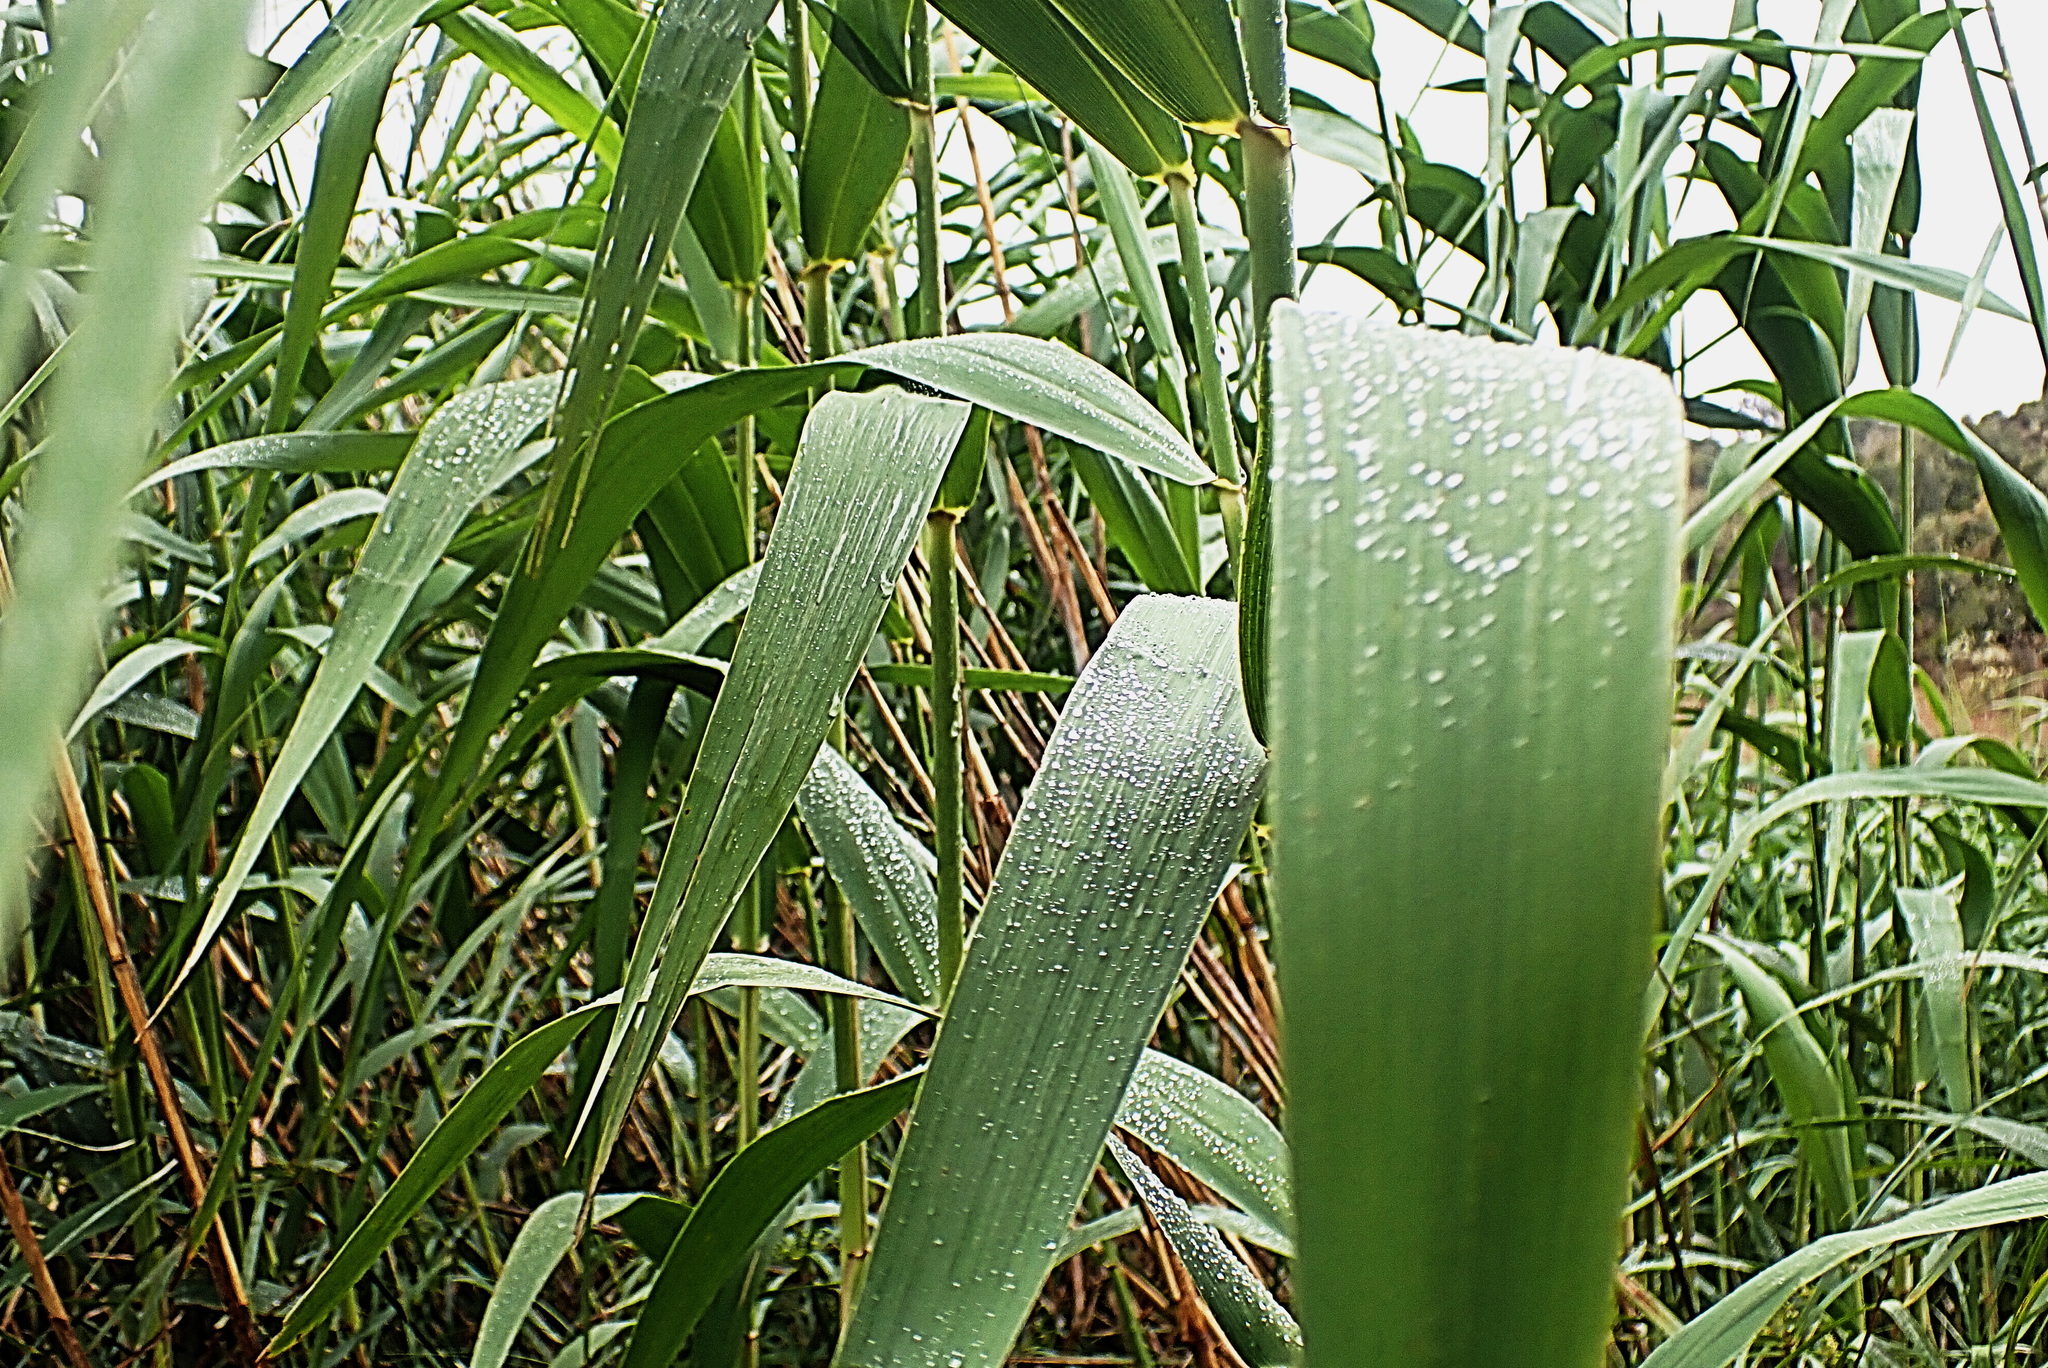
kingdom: Plantae
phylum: Tracheophyta
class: Liliopsida
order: Poales
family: Poaceae
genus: Phragmites
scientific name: Phragmites australis
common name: Common reed
